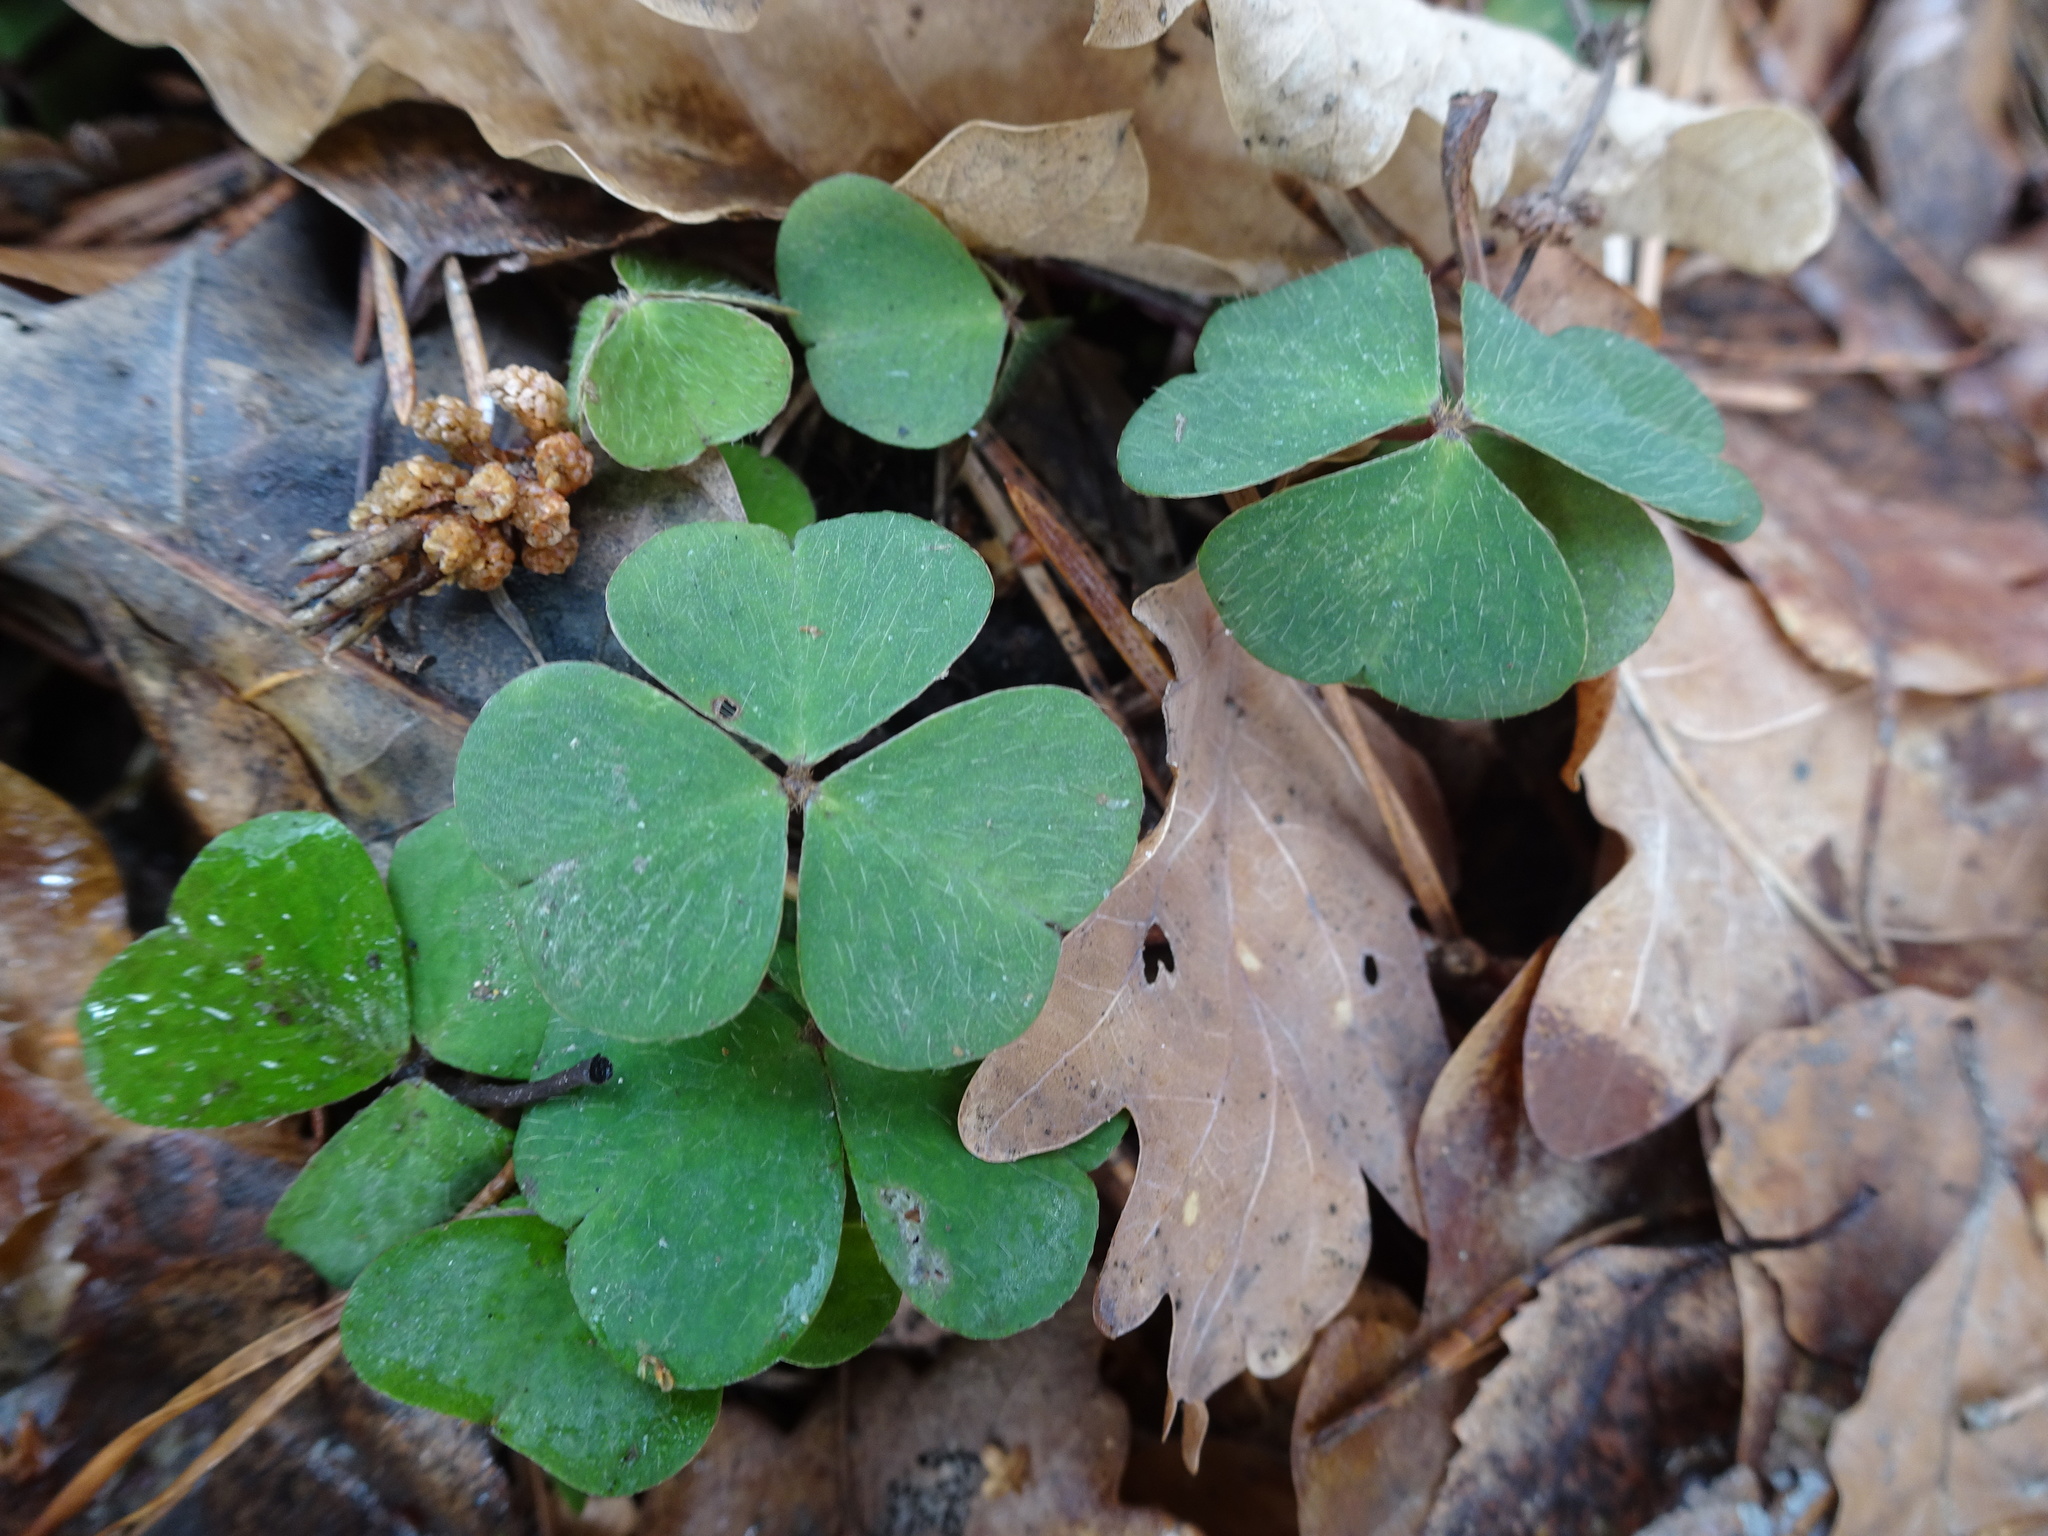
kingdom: Plantae
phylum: Tracheophyta
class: Magnoliopsida
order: Oxalidales
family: Oxalidaceae
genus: Oxalis
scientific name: Oxalis acetosella
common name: Wood-sorrel
